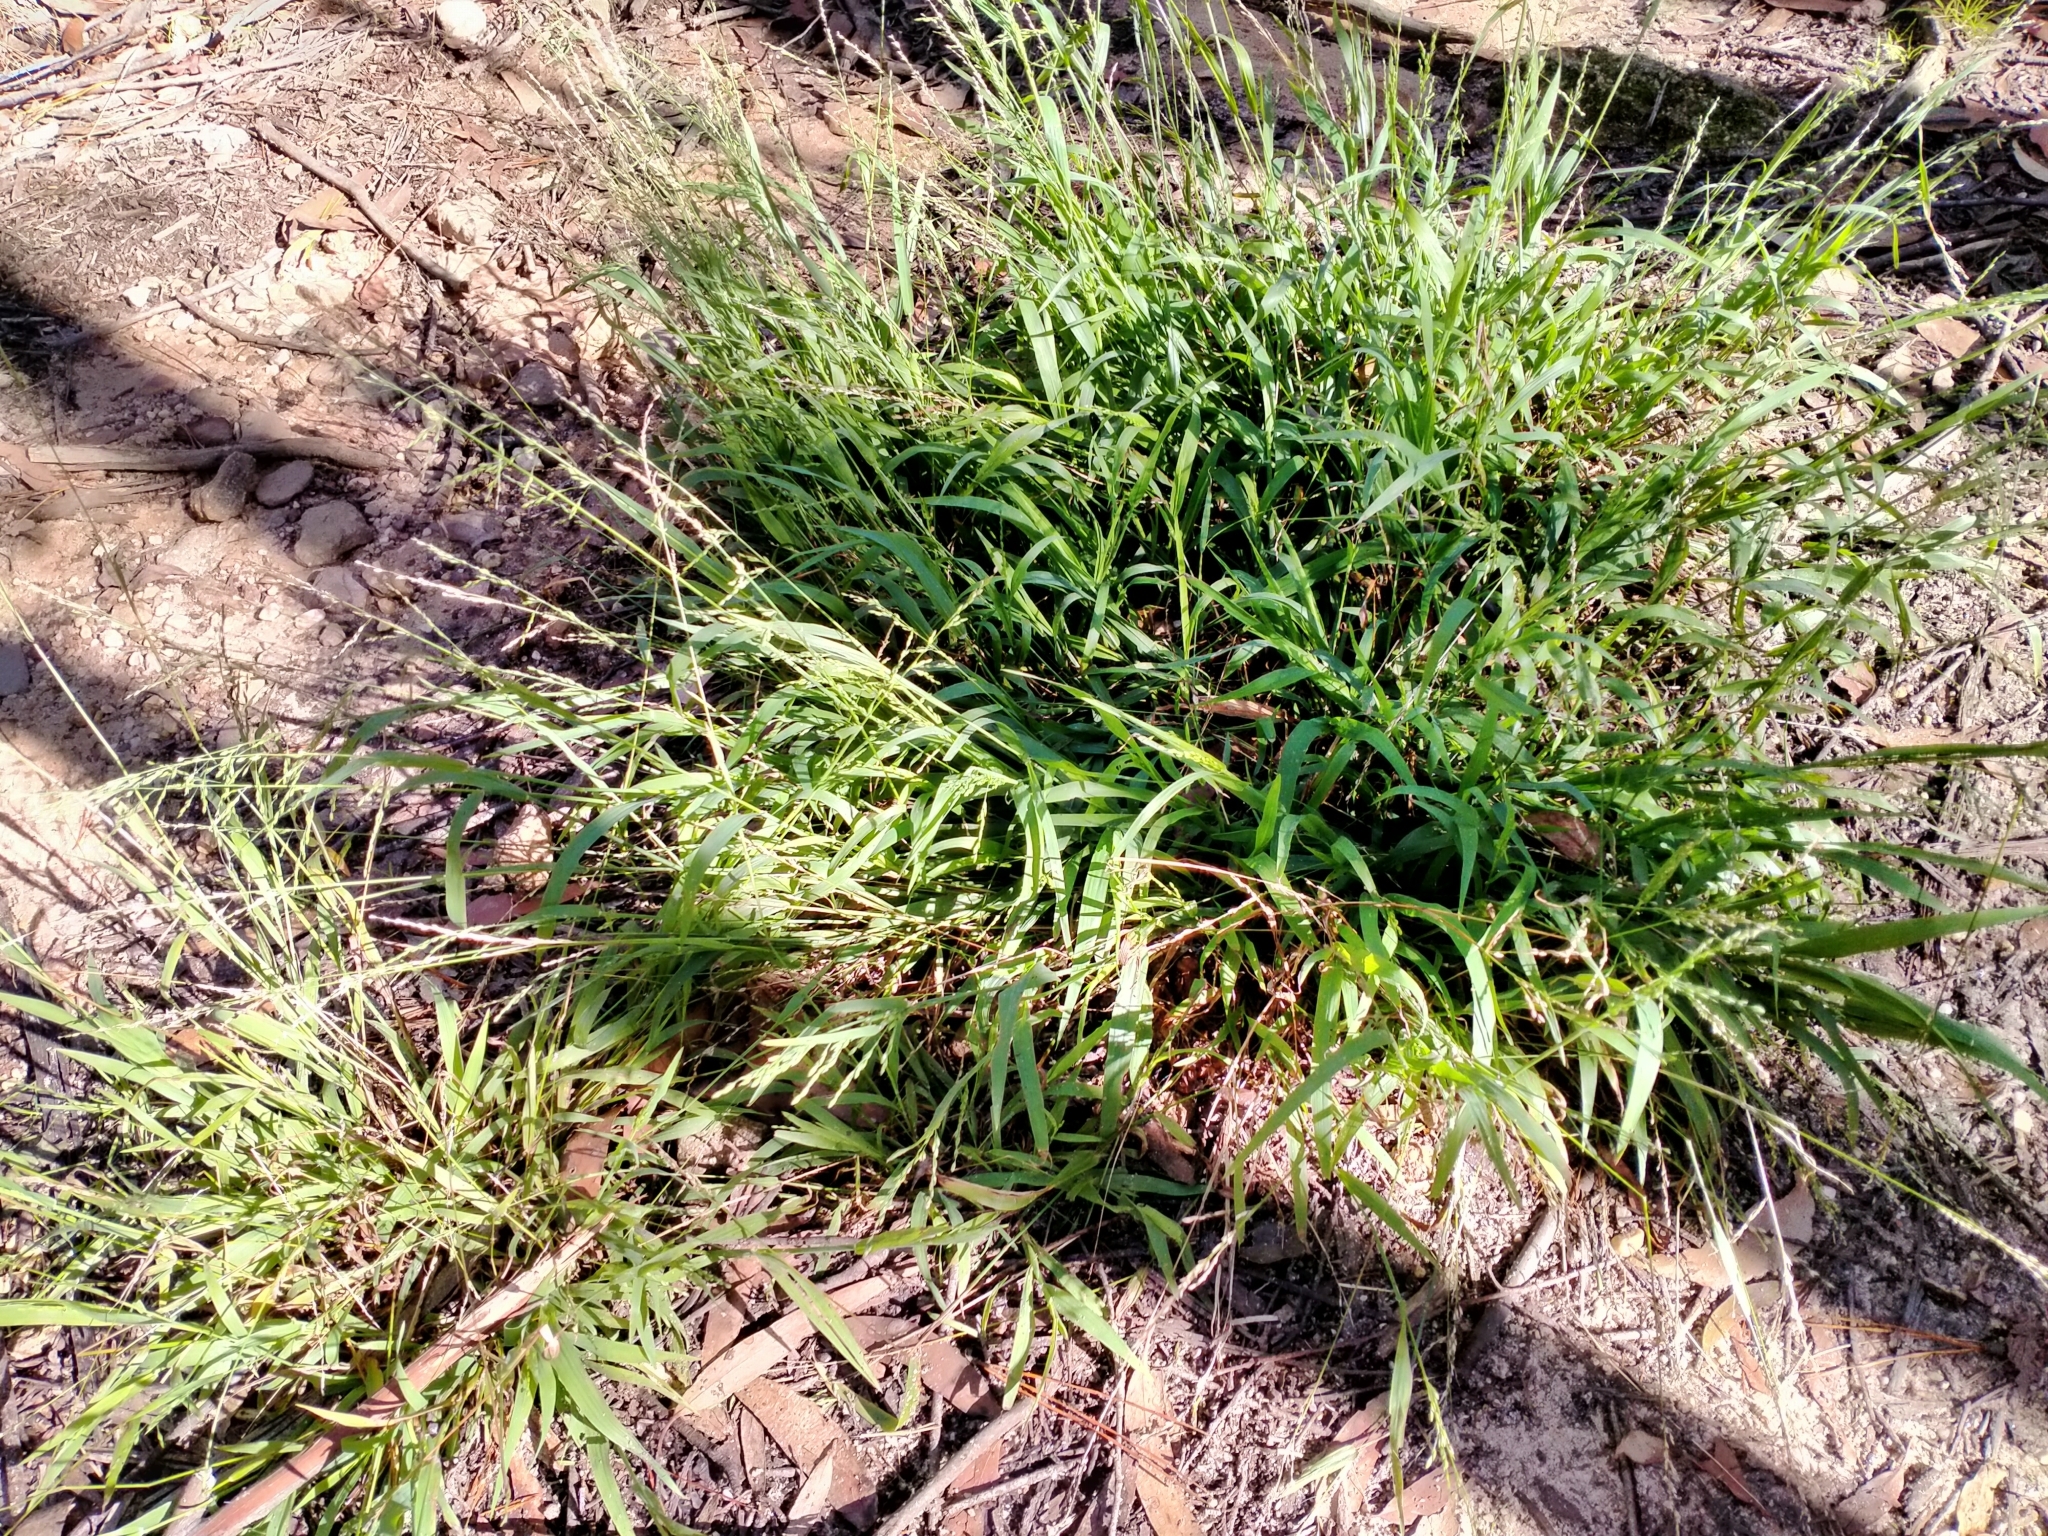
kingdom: Plantae
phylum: Tracheophyta
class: Liliopsida
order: Poales
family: Poaceae
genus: Ehrharta
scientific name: Ehrharta erecta
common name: Panic veldtgrass
